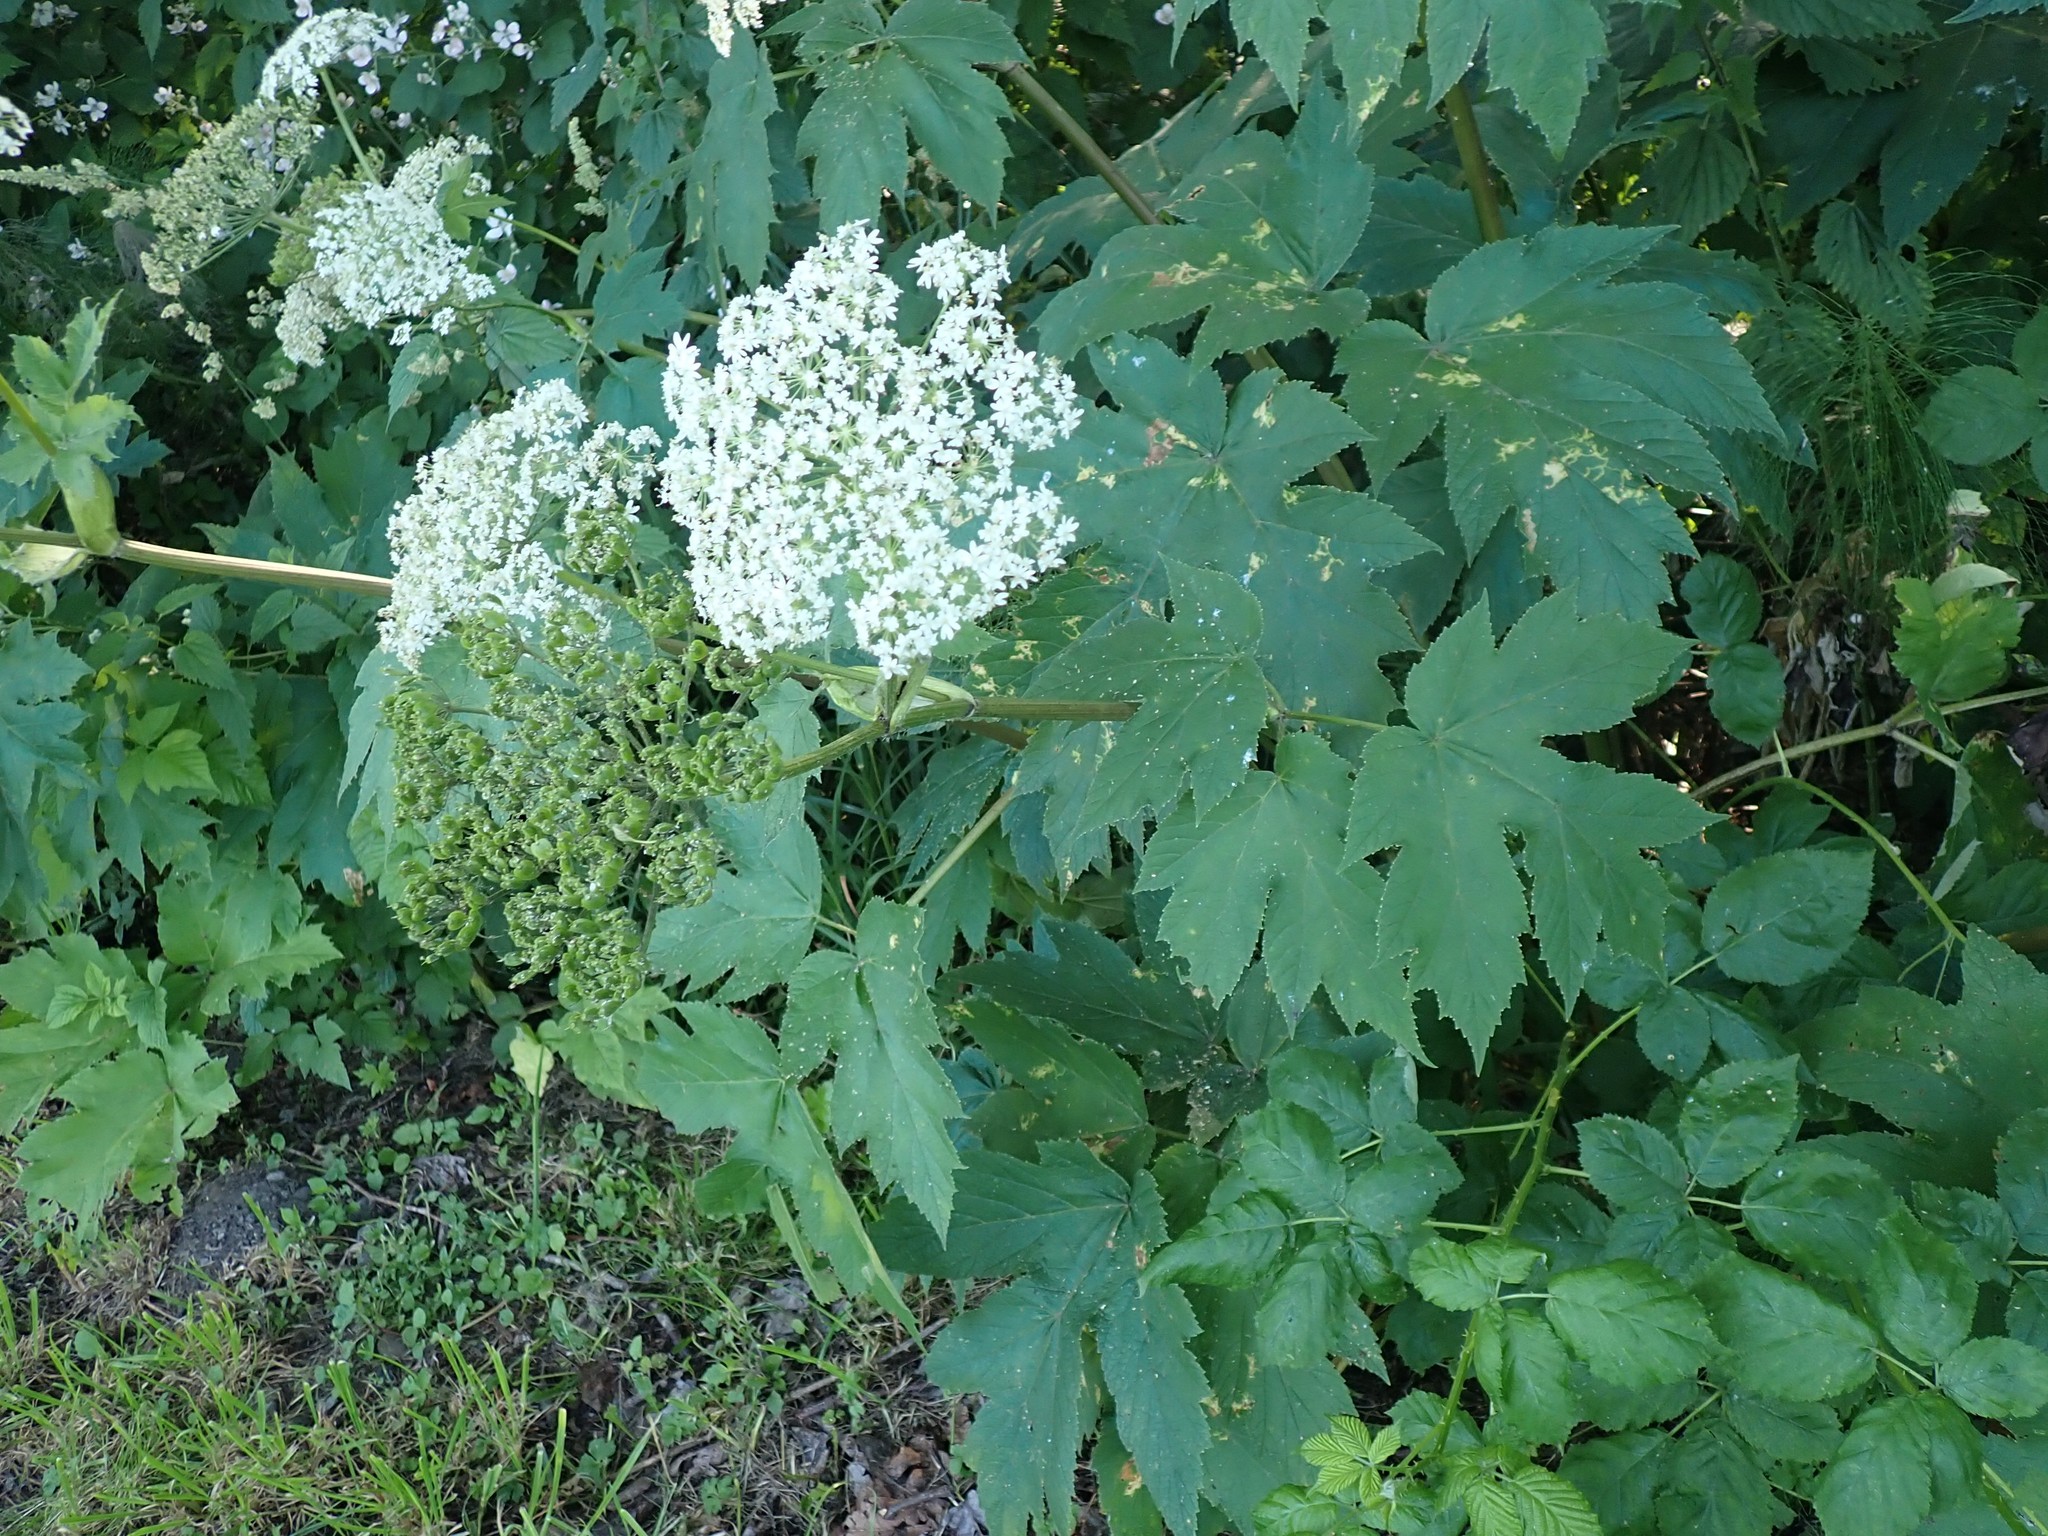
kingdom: Plantae
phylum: Tracheophyta
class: Magnoliopsida
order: Apiales
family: Apiaceae
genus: Heracleum
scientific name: Heracleum maximum
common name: American cow parsnip
